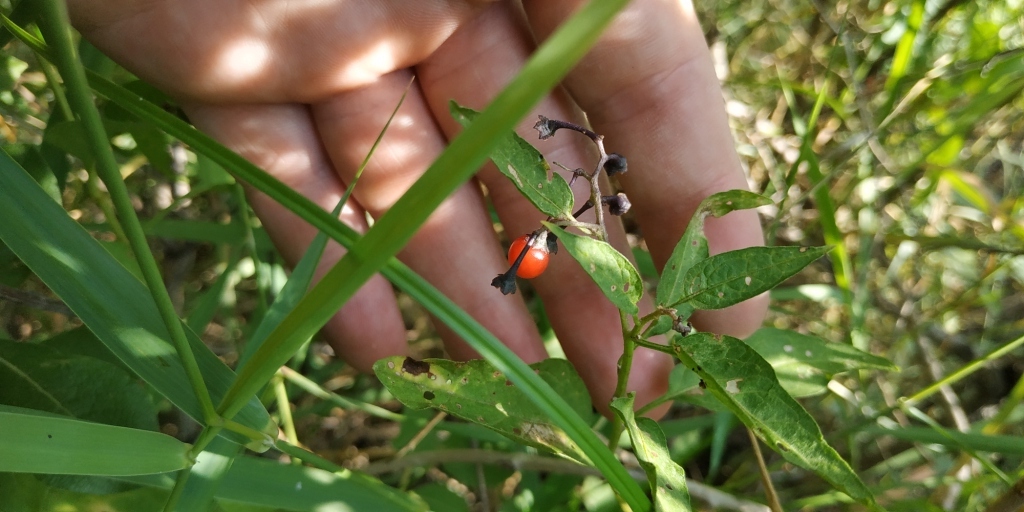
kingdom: Plantae
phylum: Tracheophyta
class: Magnoliopsida
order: Solanales
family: Solanaceae
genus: Solanum
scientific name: Solanum dulcamara
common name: Climbing nightshade
